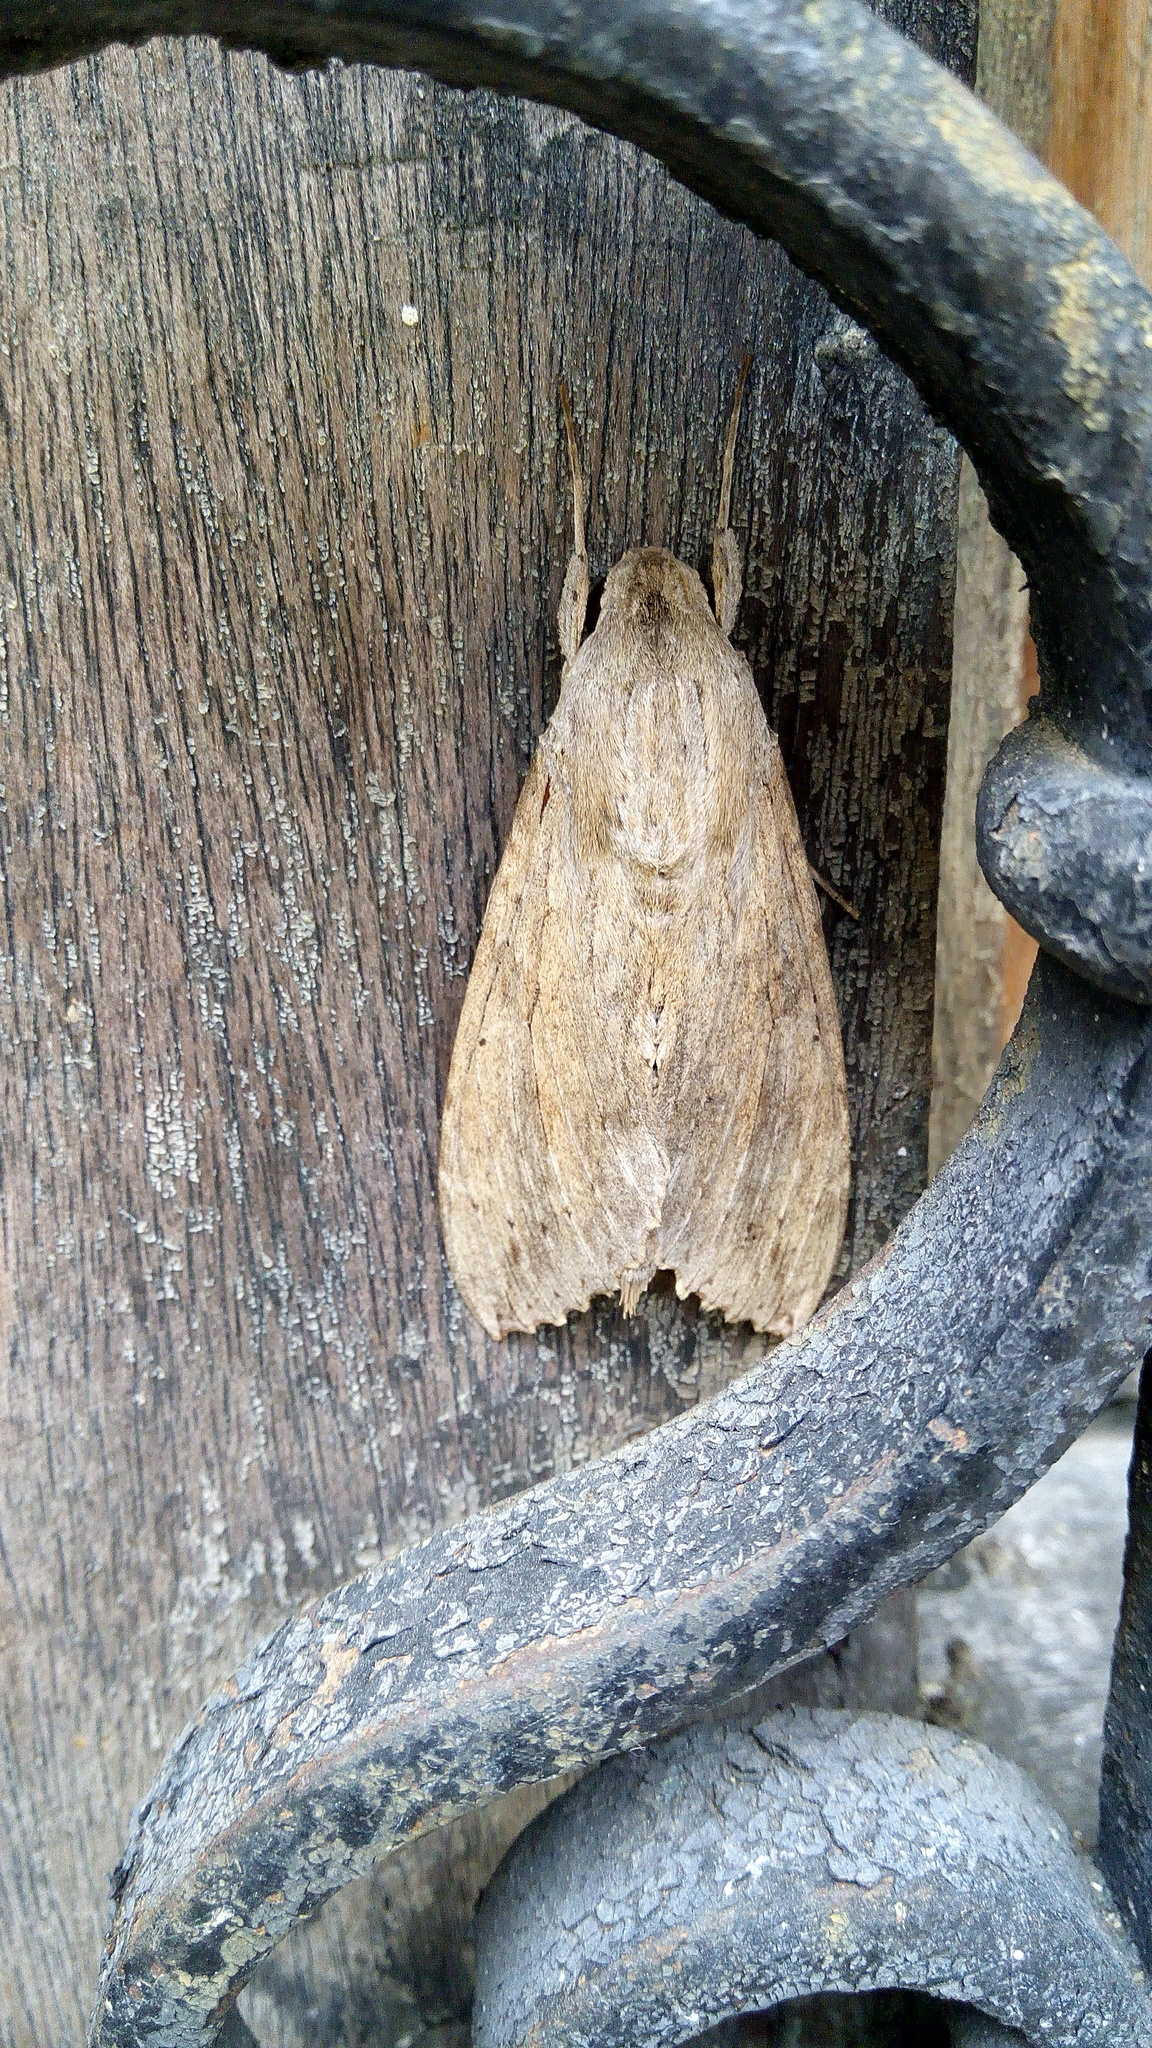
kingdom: Animalia
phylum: Arthropoda
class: Insecta
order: Lepidoptera
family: Sphingidae
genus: Erinnyis
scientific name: Erinnyis ello
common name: Ello sphinx
